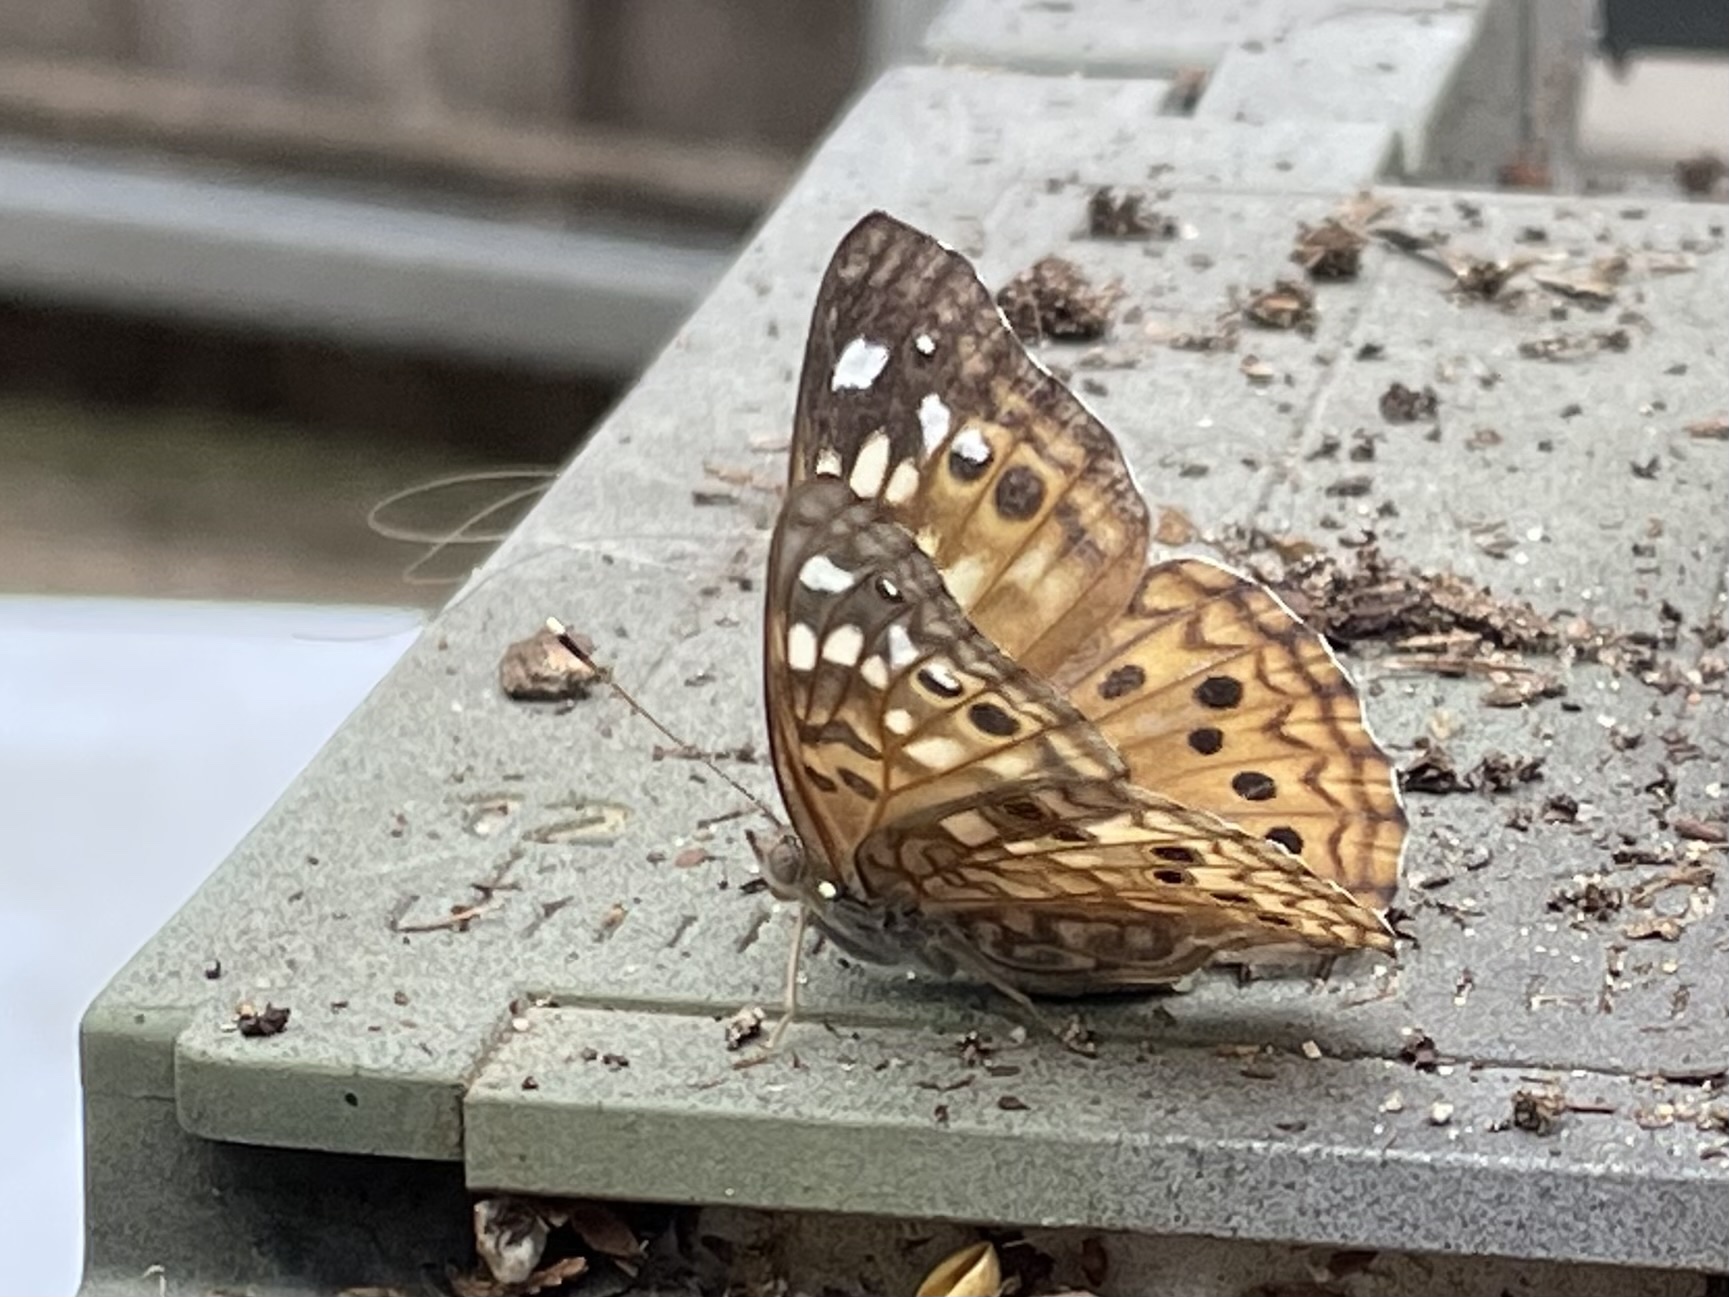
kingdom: Animalia
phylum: Arthropoda
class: Insecta
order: Lepidoptera
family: Nymphalidae
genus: Asterocampa
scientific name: Asterocampa celtis
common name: Hackberry emperor
